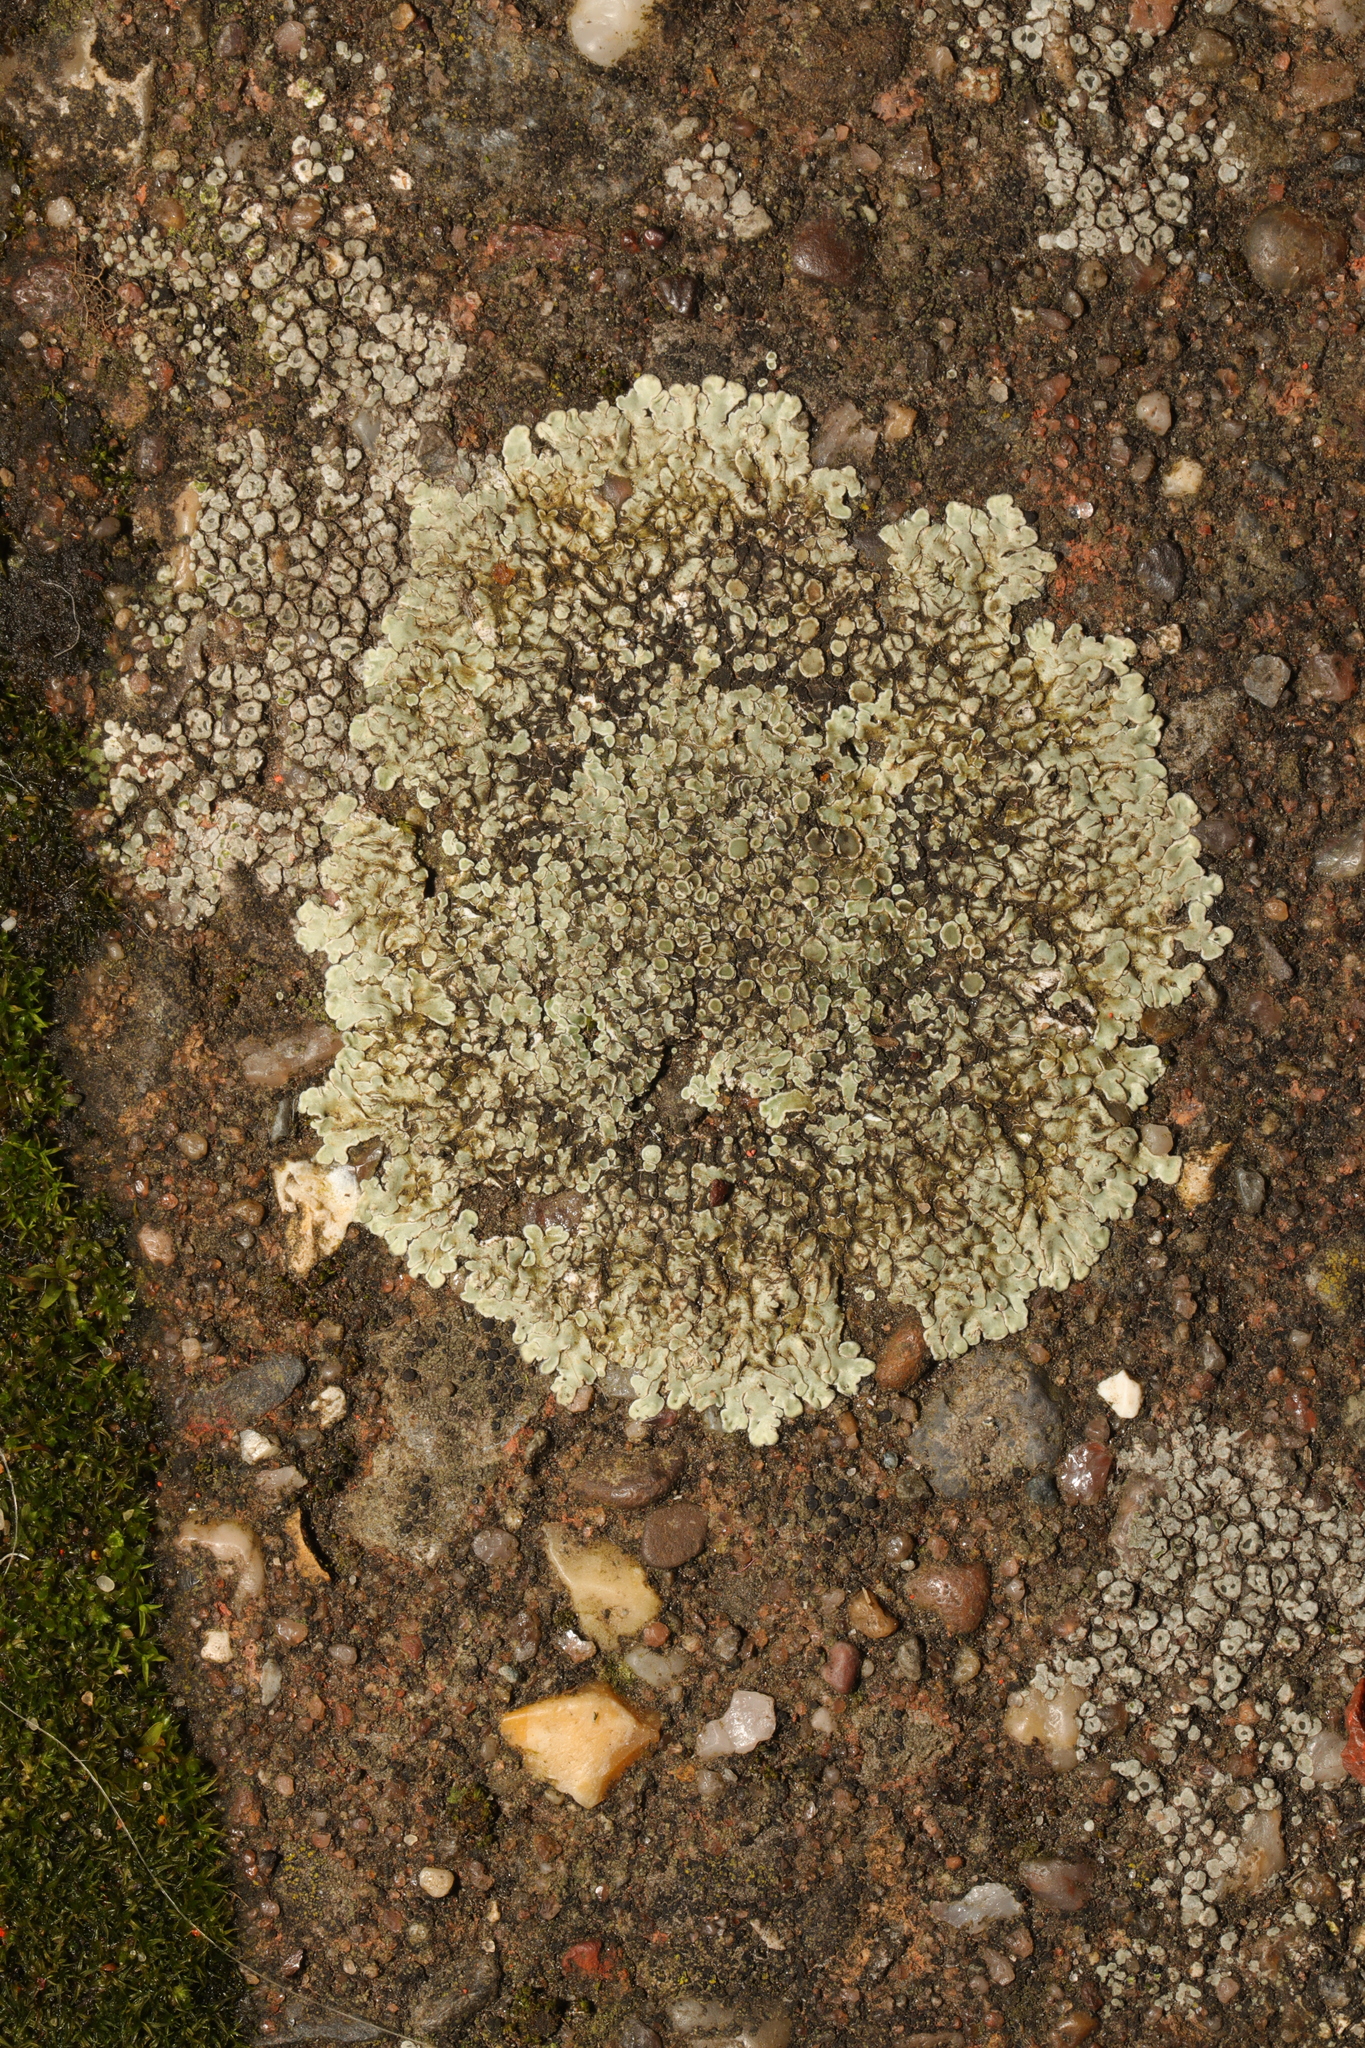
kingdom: Fungi
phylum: Ascomycota
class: Lecanoromycetes
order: Lecanorales
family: Lecanoraceae
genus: Protoparmeliopsis
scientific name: Protoparmeliopsis muralis
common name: Stonewall rim lichen
